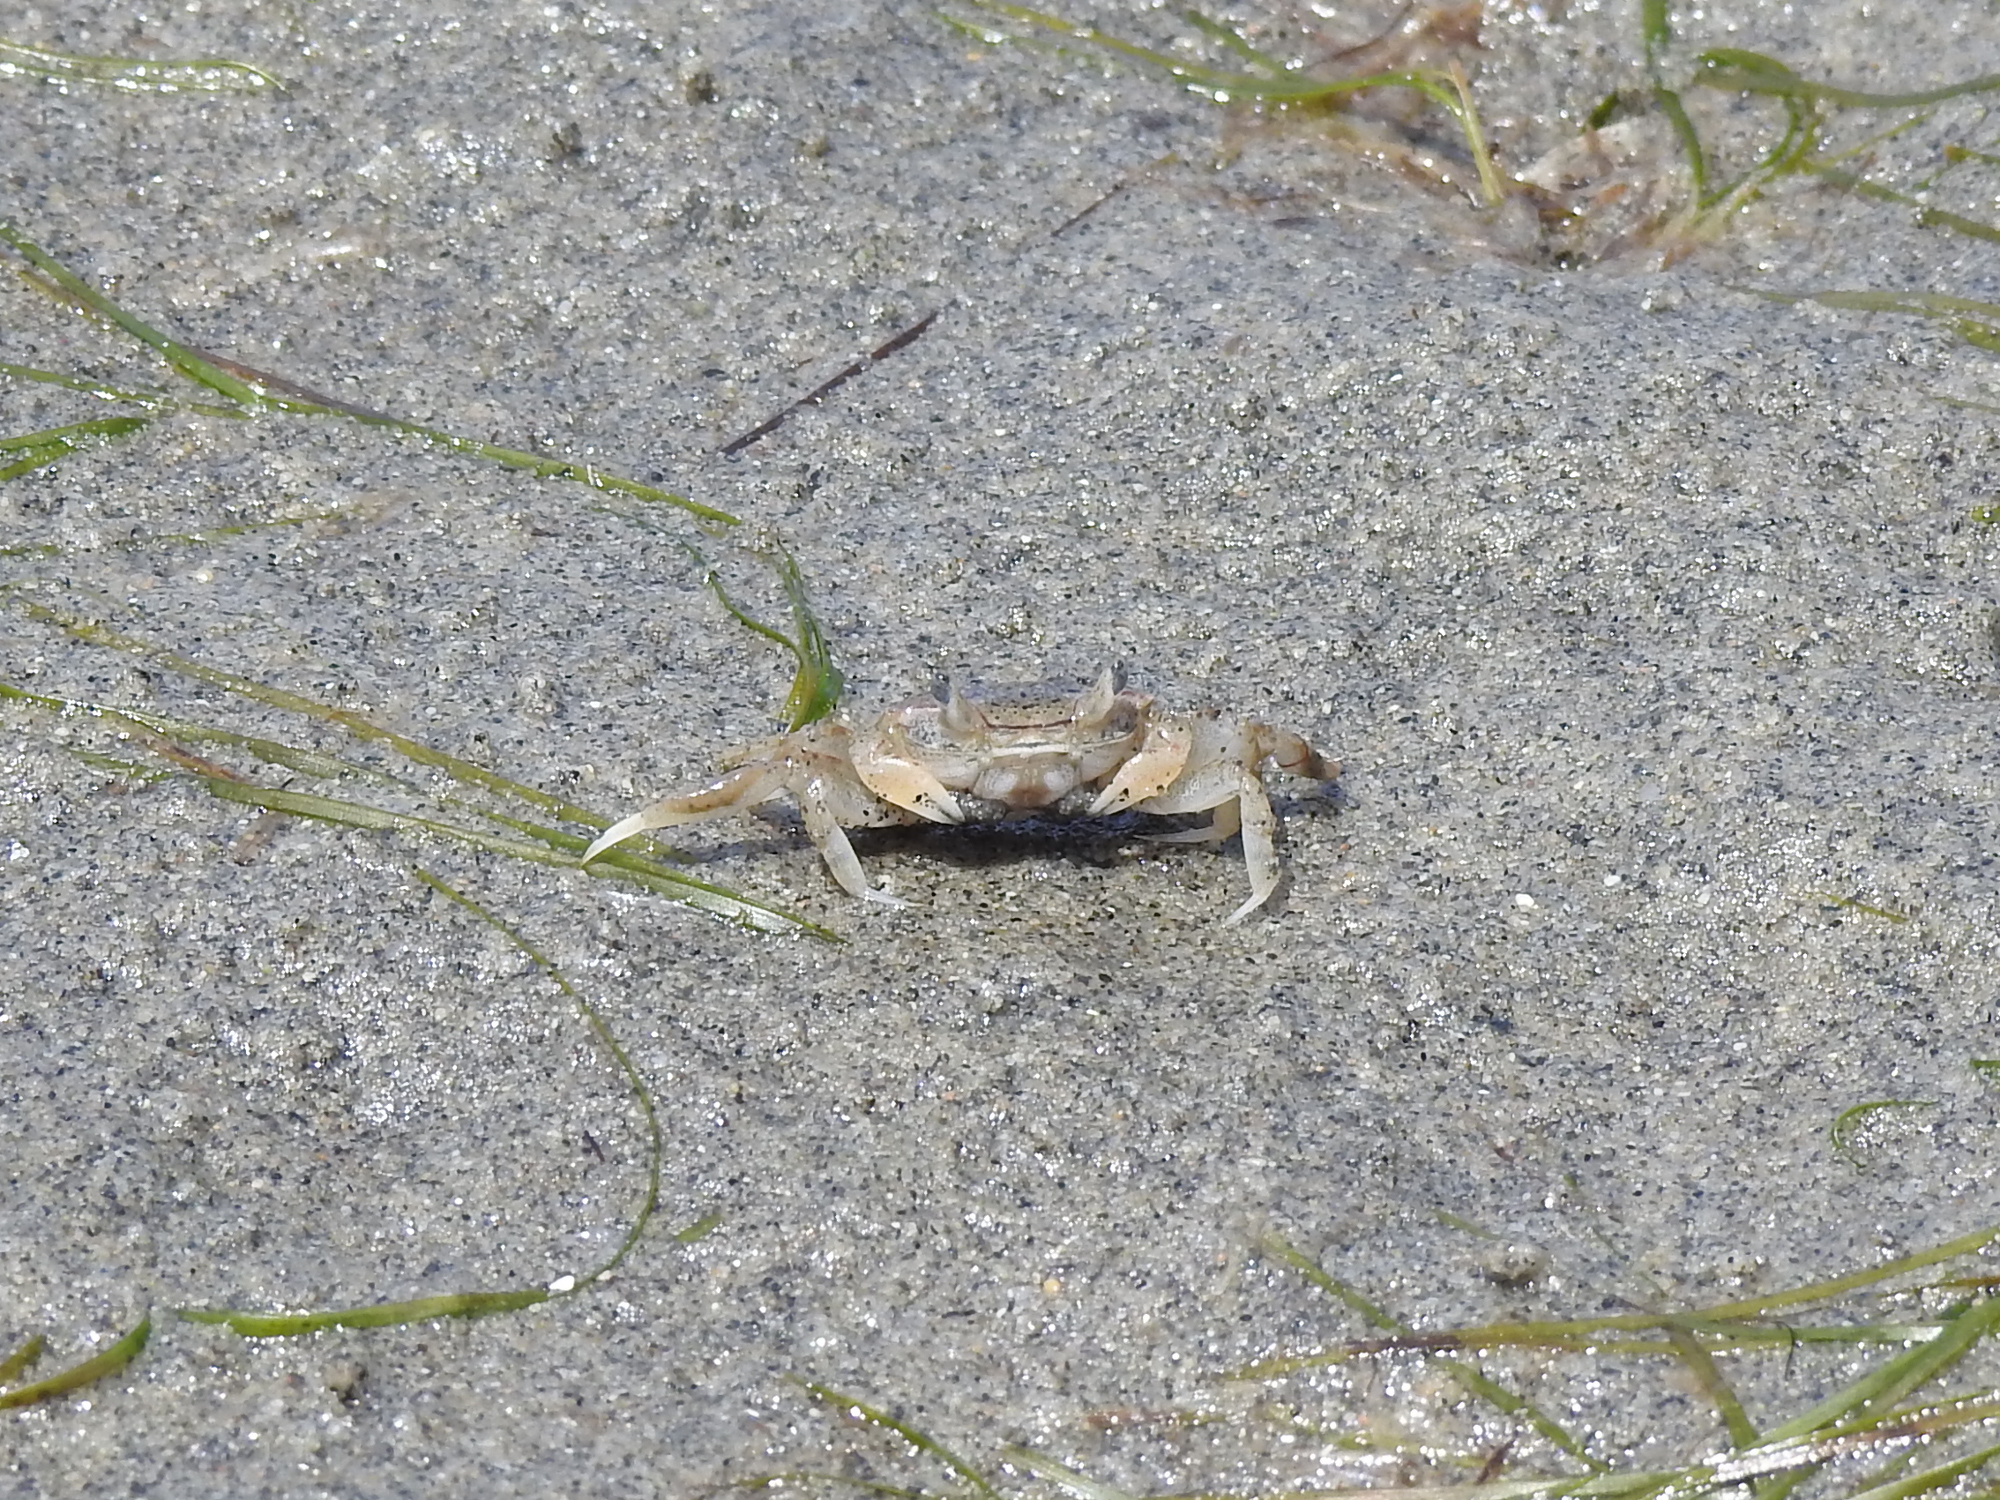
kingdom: Animalia
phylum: Arthropoda
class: Malacostraca
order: Decapoda
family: Varunidae
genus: Austrohelice
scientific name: Austrohelice crassa
